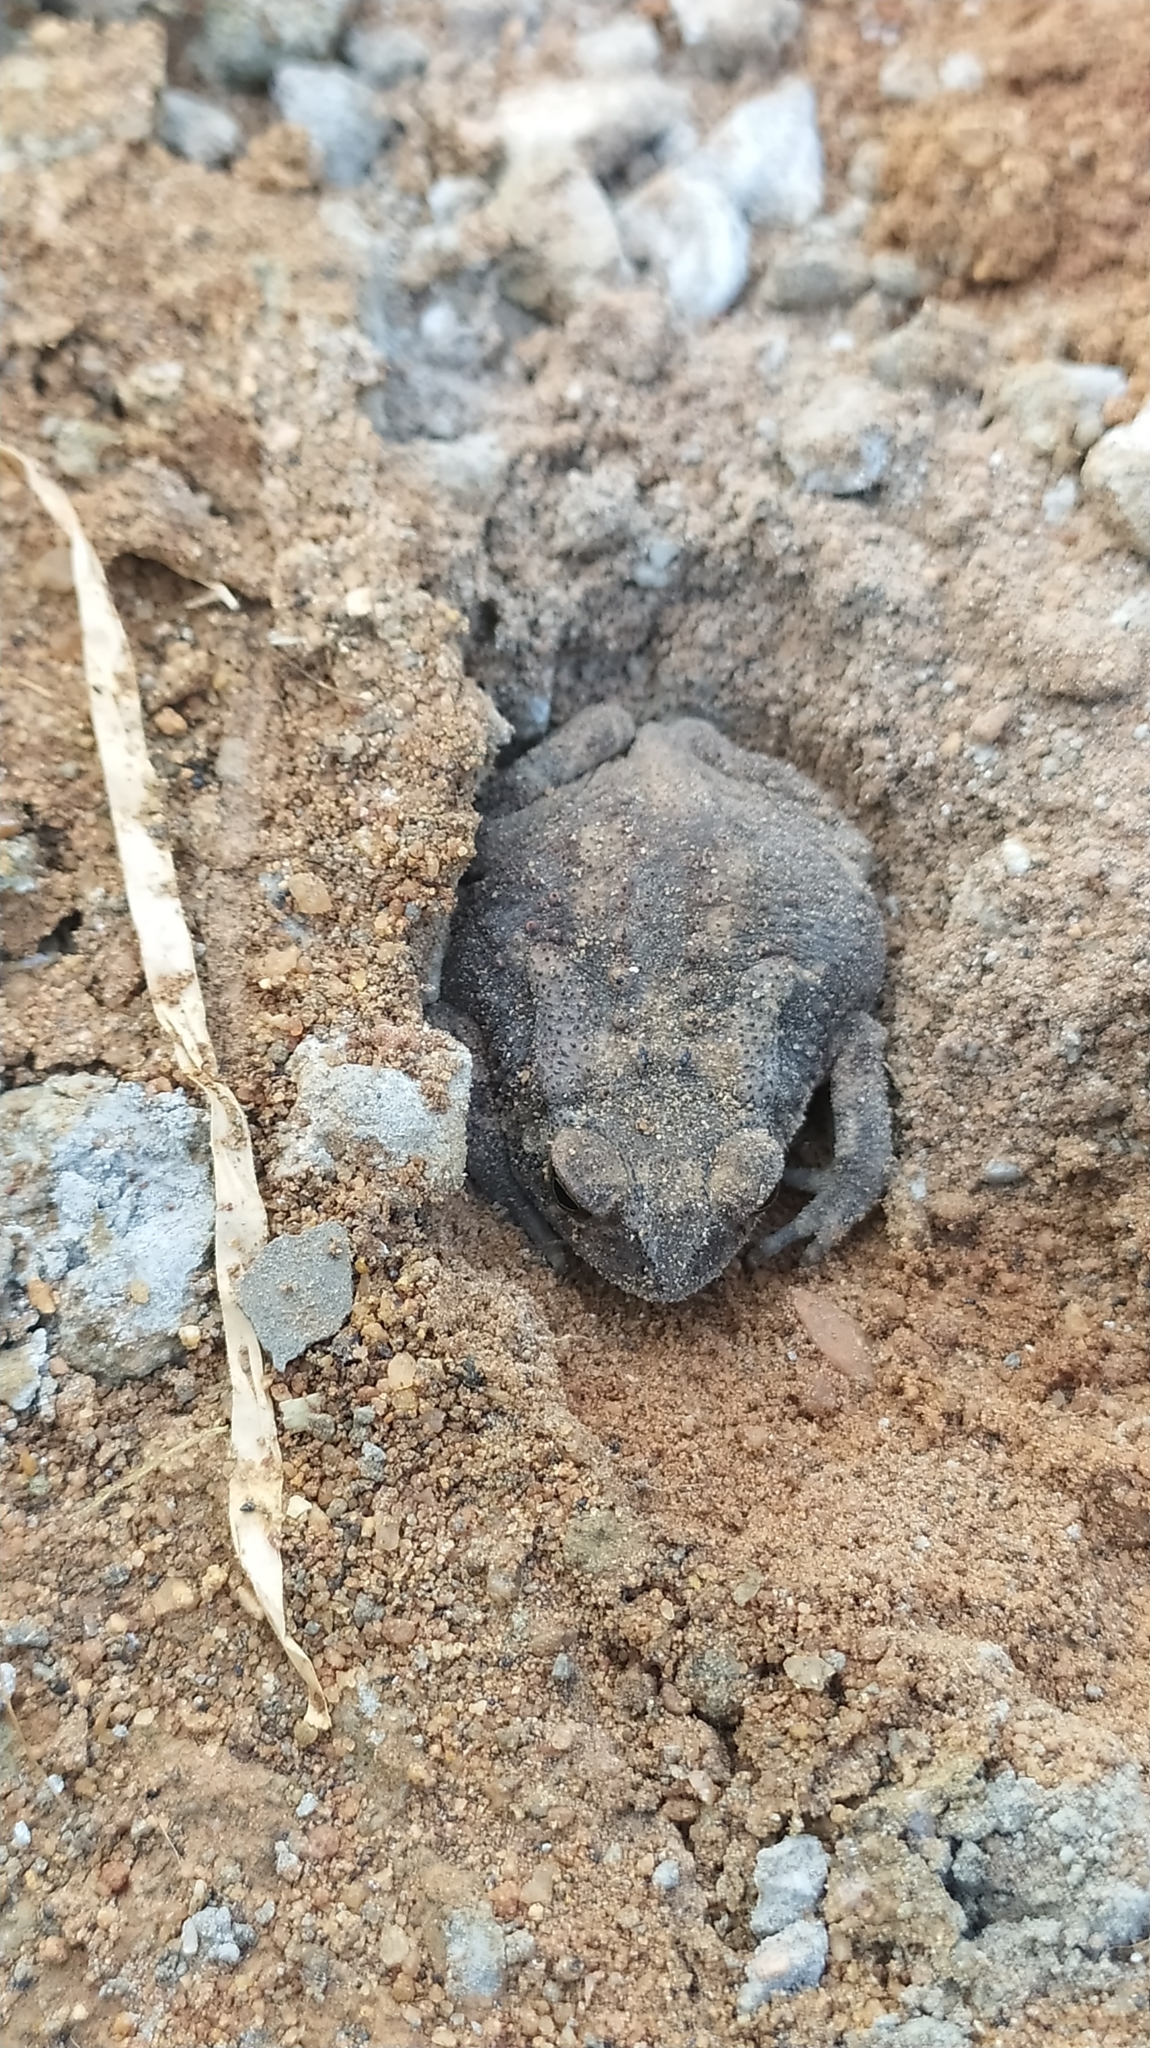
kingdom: Animalia
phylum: Chordata
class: Amphibia
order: Anura
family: Bufonidae
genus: Duttaphrynus
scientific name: Duttaphrynus melanostictus
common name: Common sunda toad
